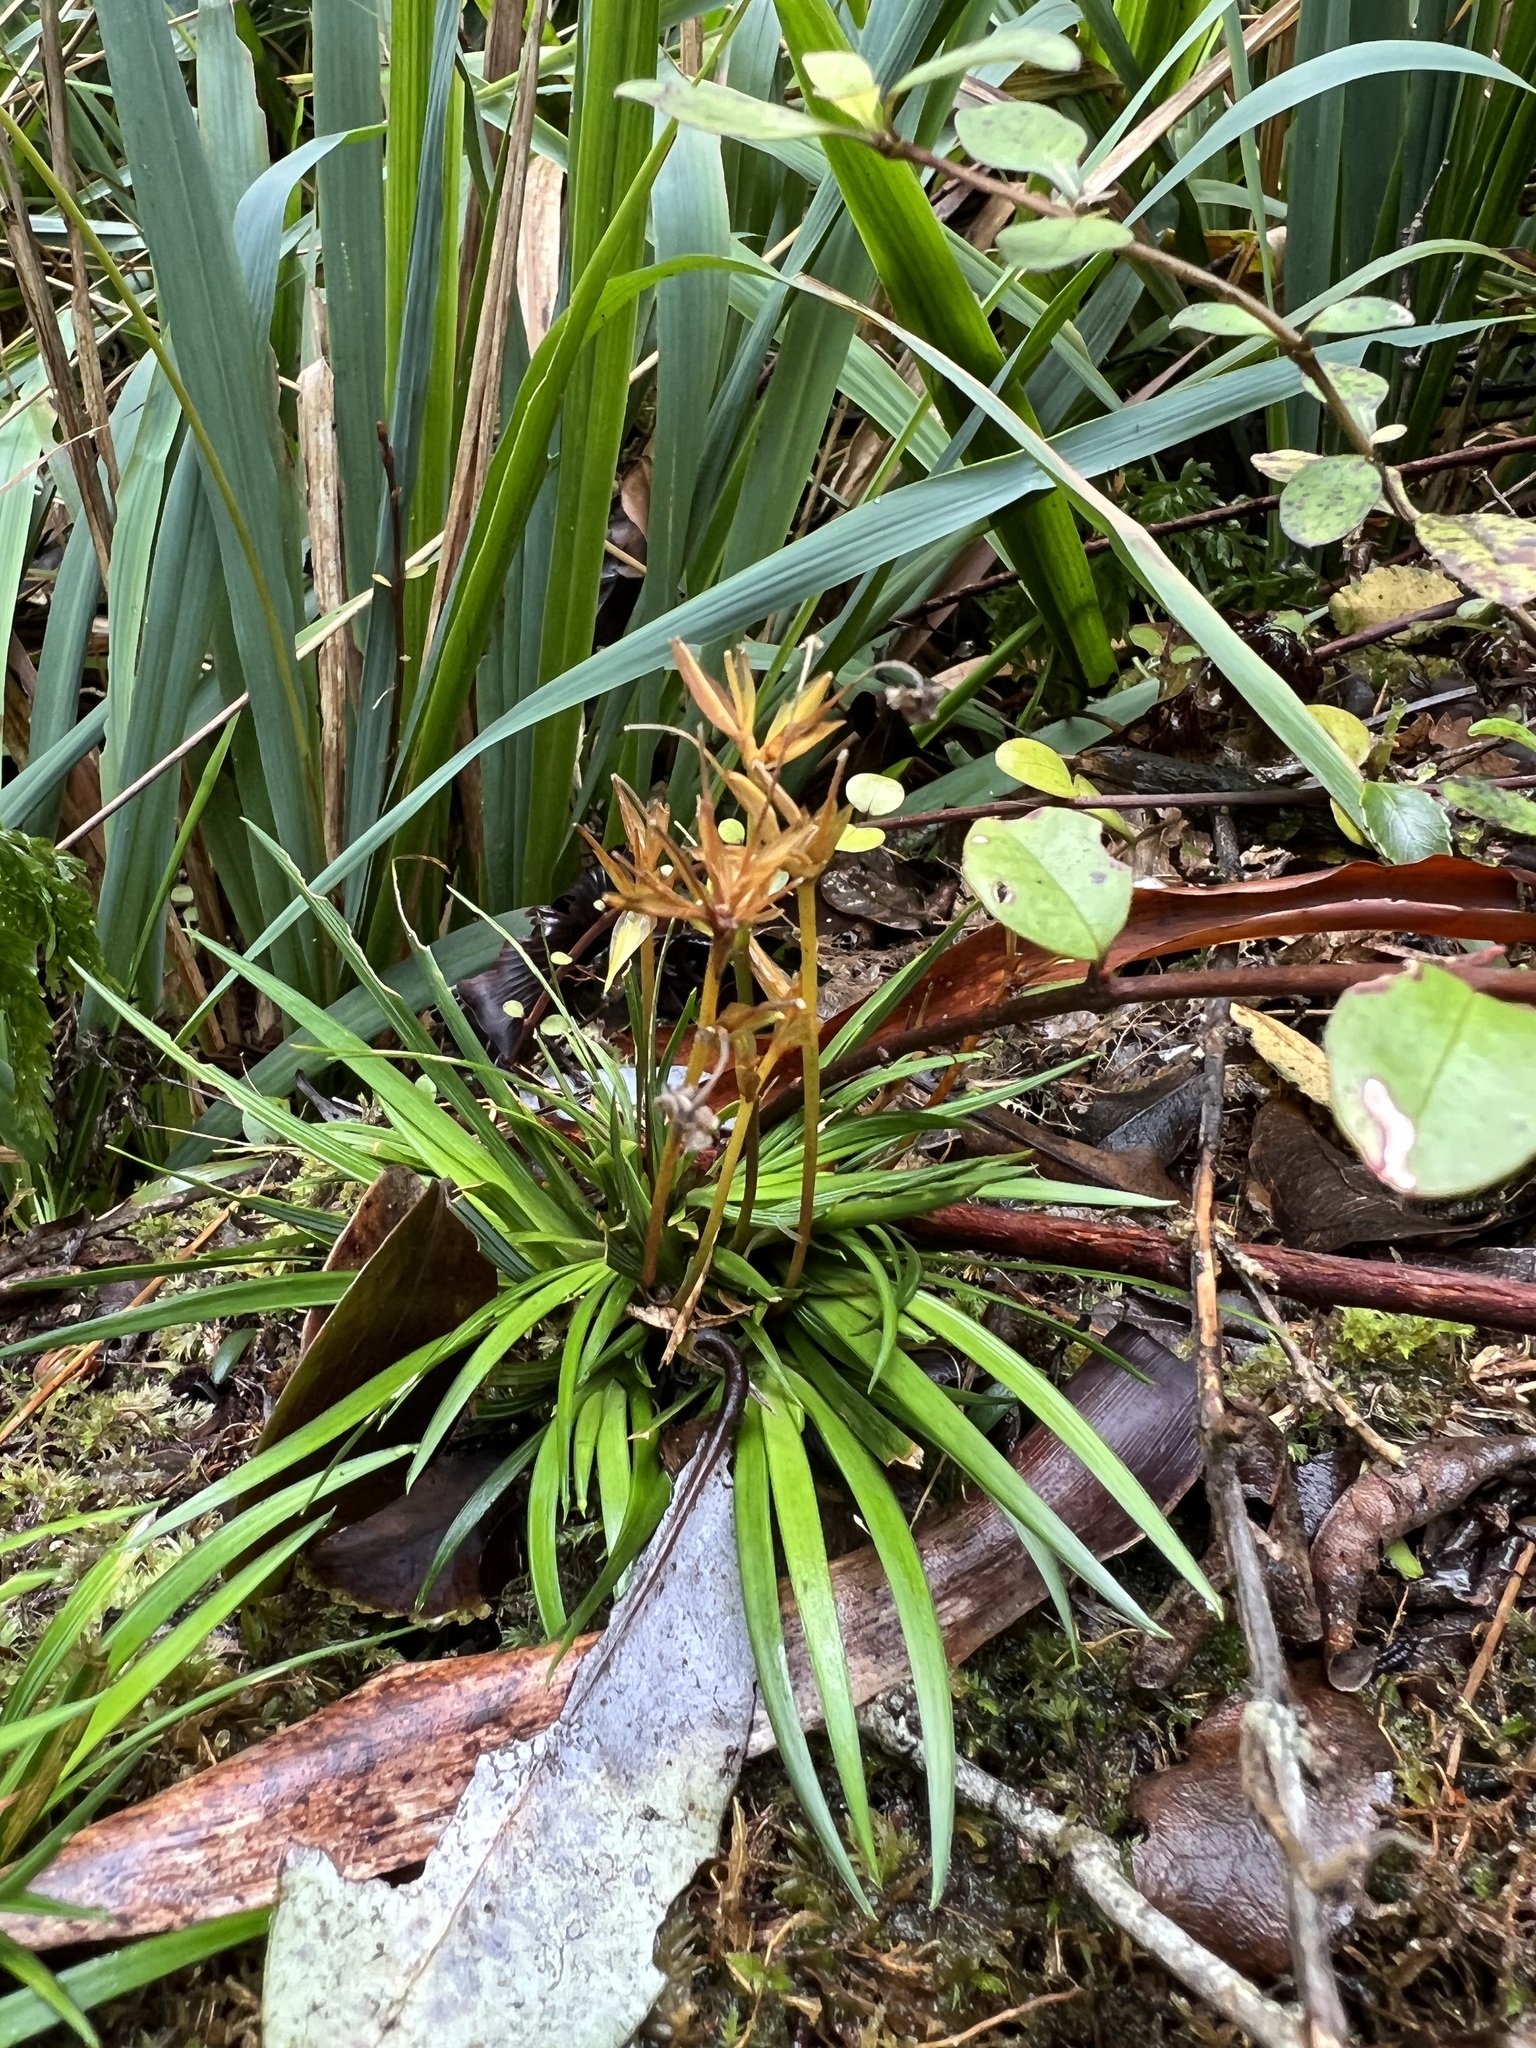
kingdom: Plantae
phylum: Tracheophyta
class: Liliopsida
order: Asparagales
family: Iridaceae
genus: Libertia
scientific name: Libertia micrantha
